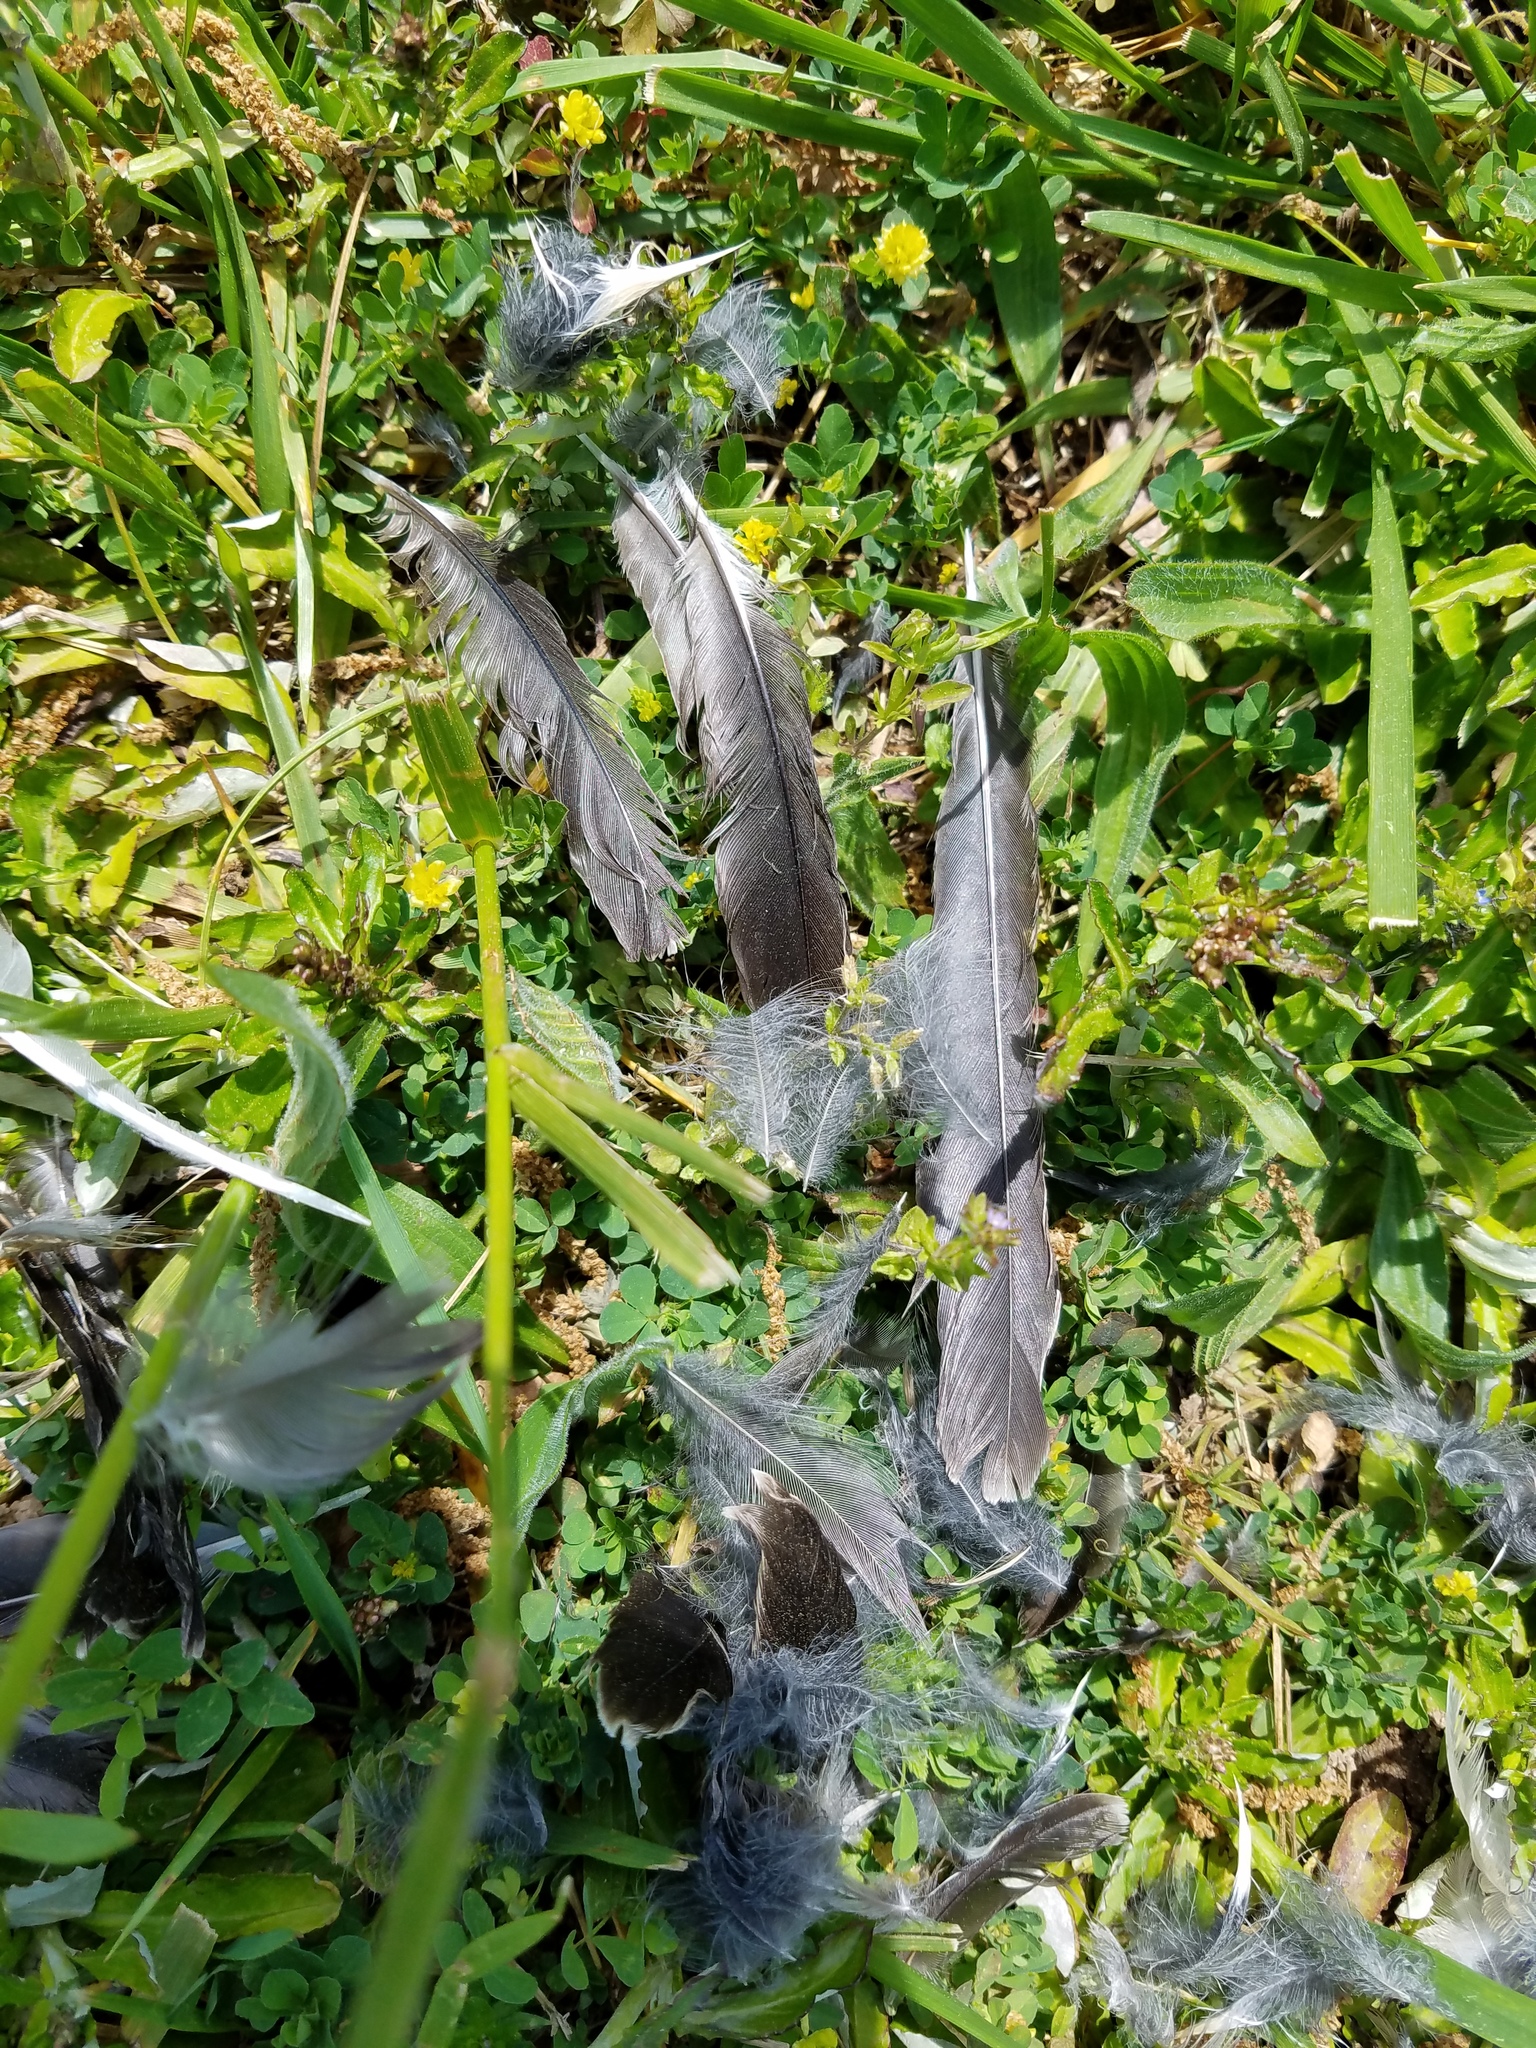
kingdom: Animalia
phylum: Chordata
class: Aves
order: Passeriformes
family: Mimidae
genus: Mimus
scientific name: Mimus polyglottos
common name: Northern mockingbird
